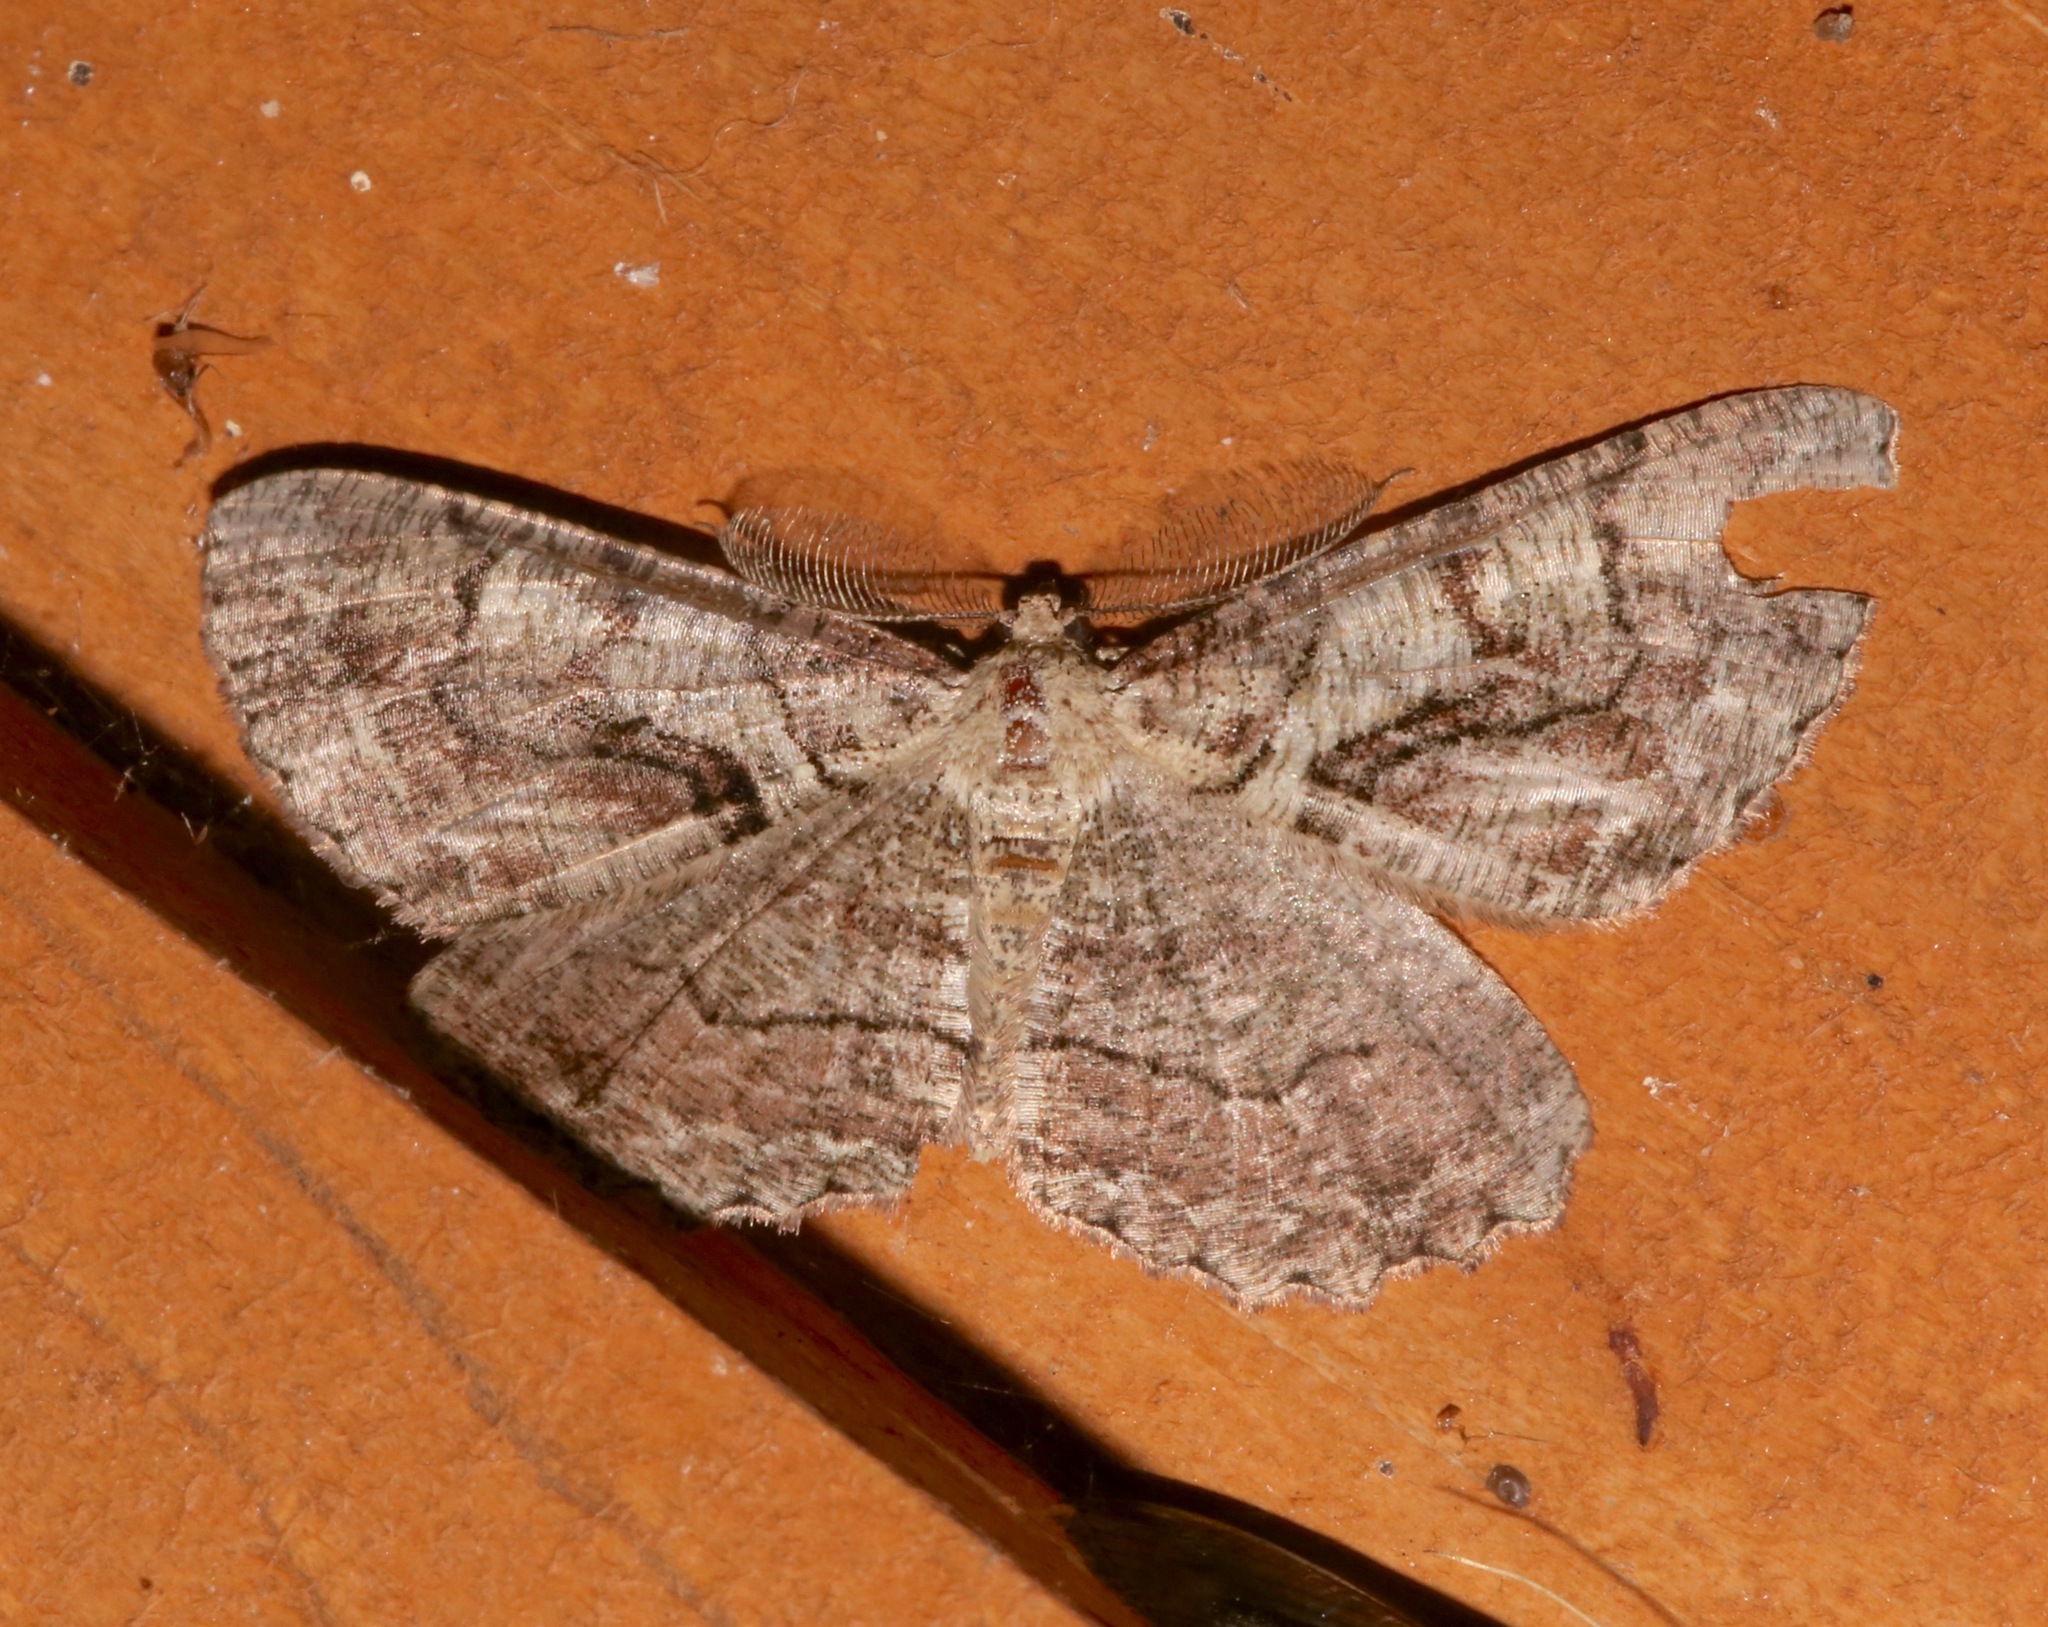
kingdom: Animalia
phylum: Arthropoda
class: Insecta
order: Lepidoptera
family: Geometridae
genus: Cymatophora
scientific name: Cymatophora approximaria
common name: Giant gray moth
